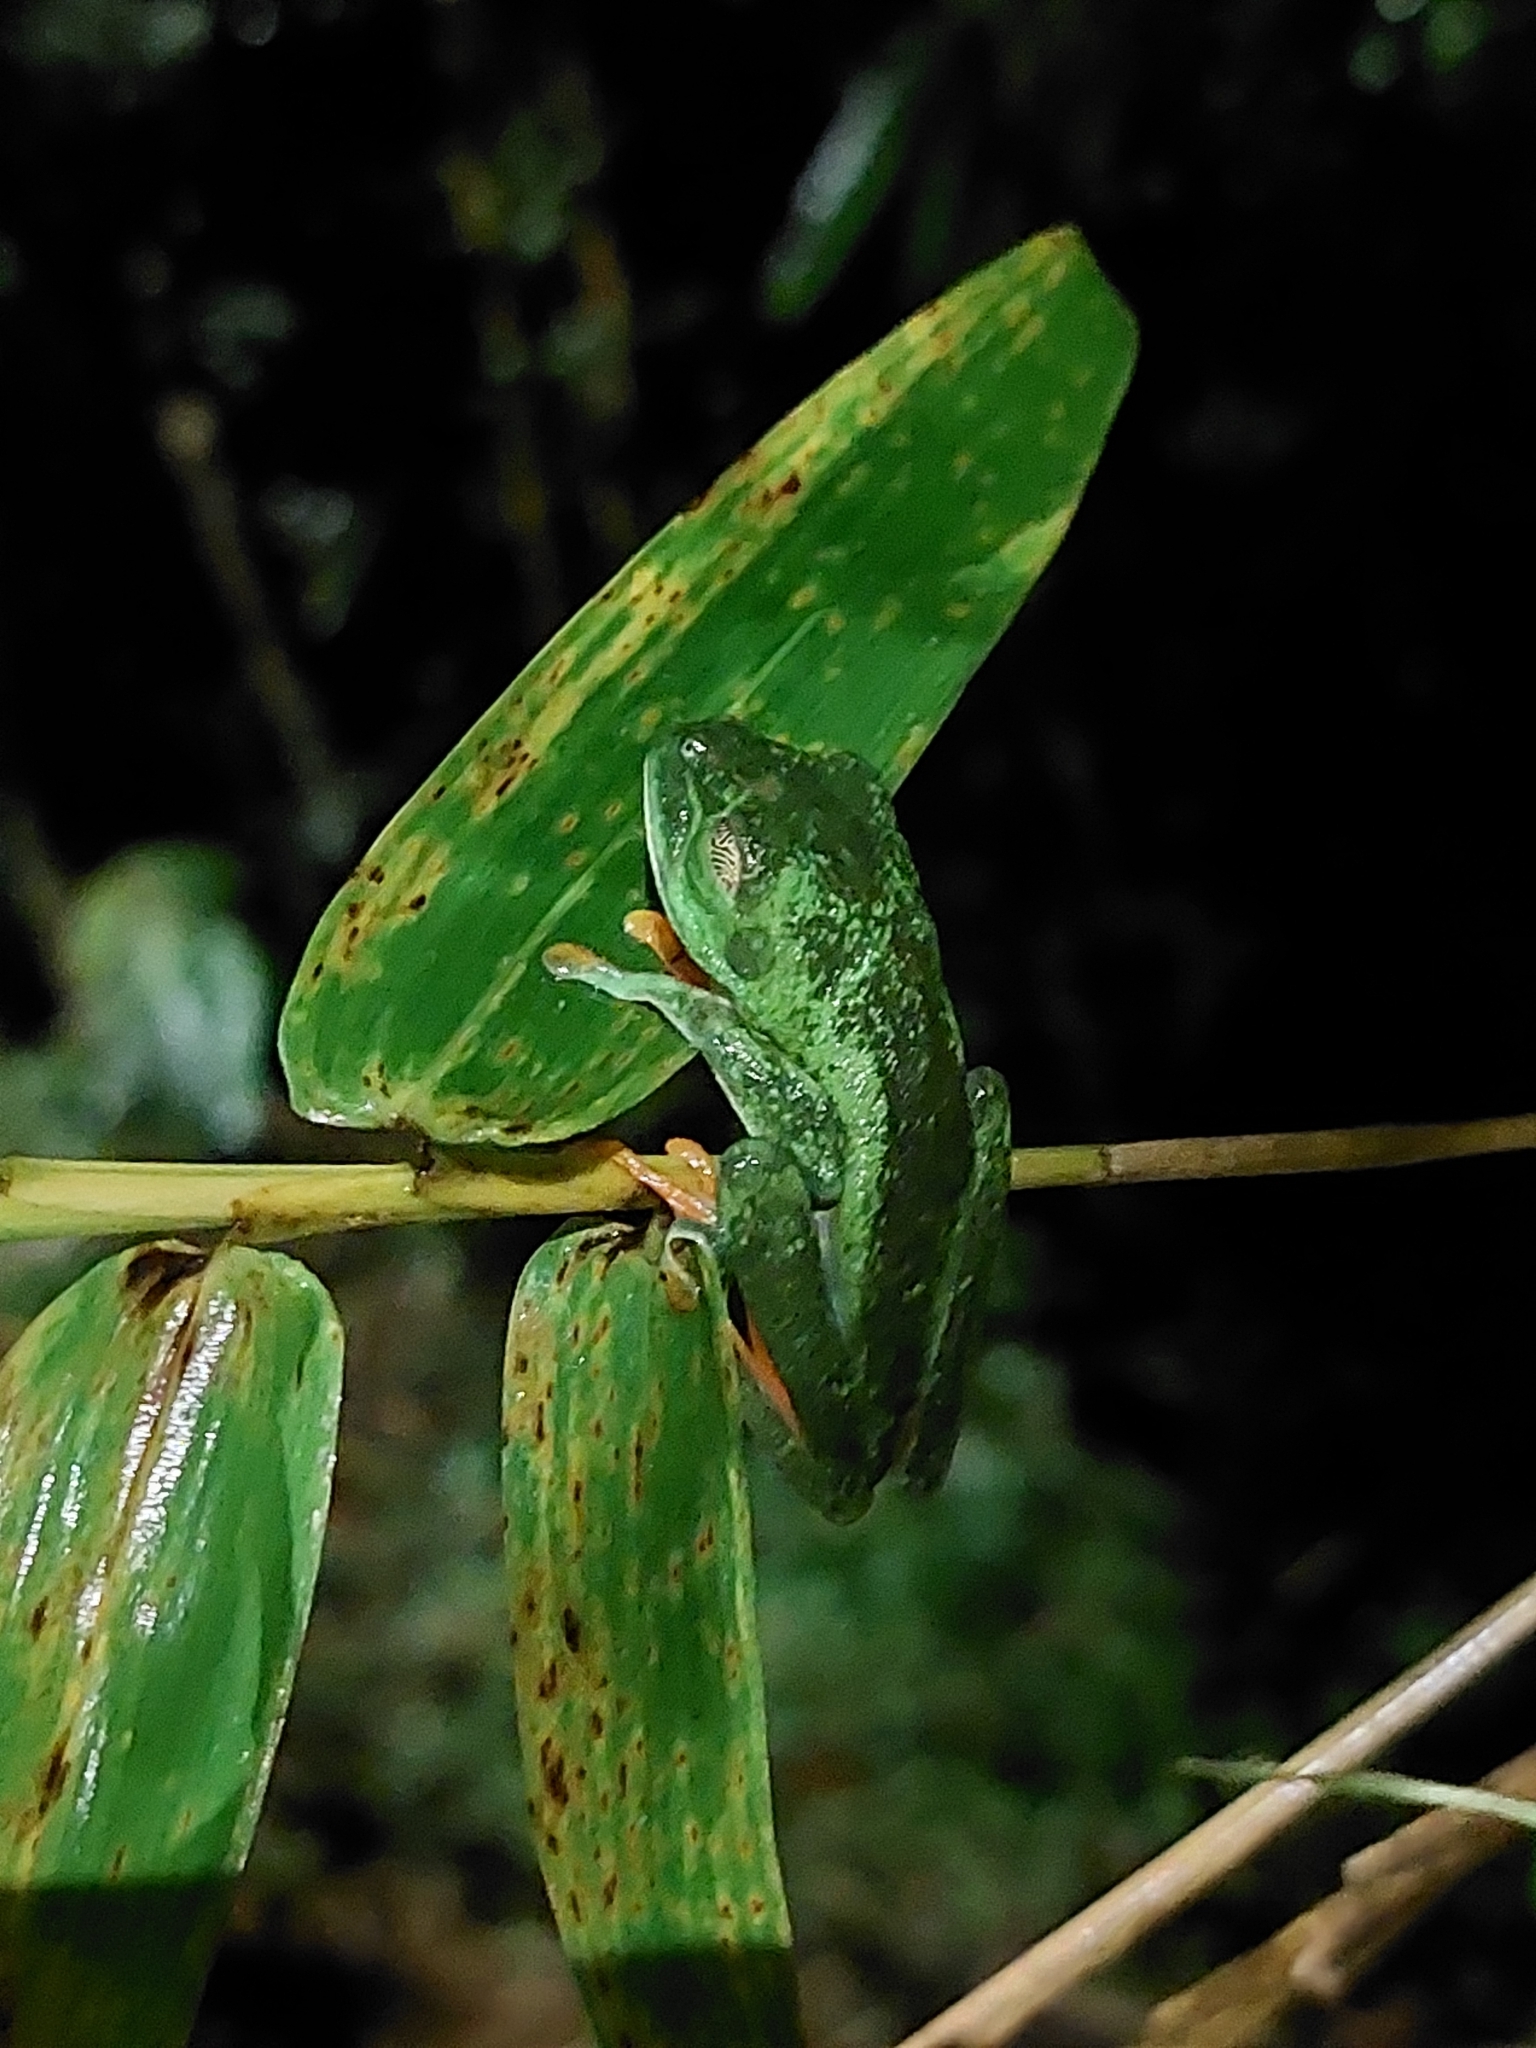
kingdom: Animalia
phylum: Chordata
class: Amphibia
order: Anura
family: Phyllomedusidae
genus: Agalychnis
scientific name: Agalychnis callidryas
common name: Red-eyed treefrog
